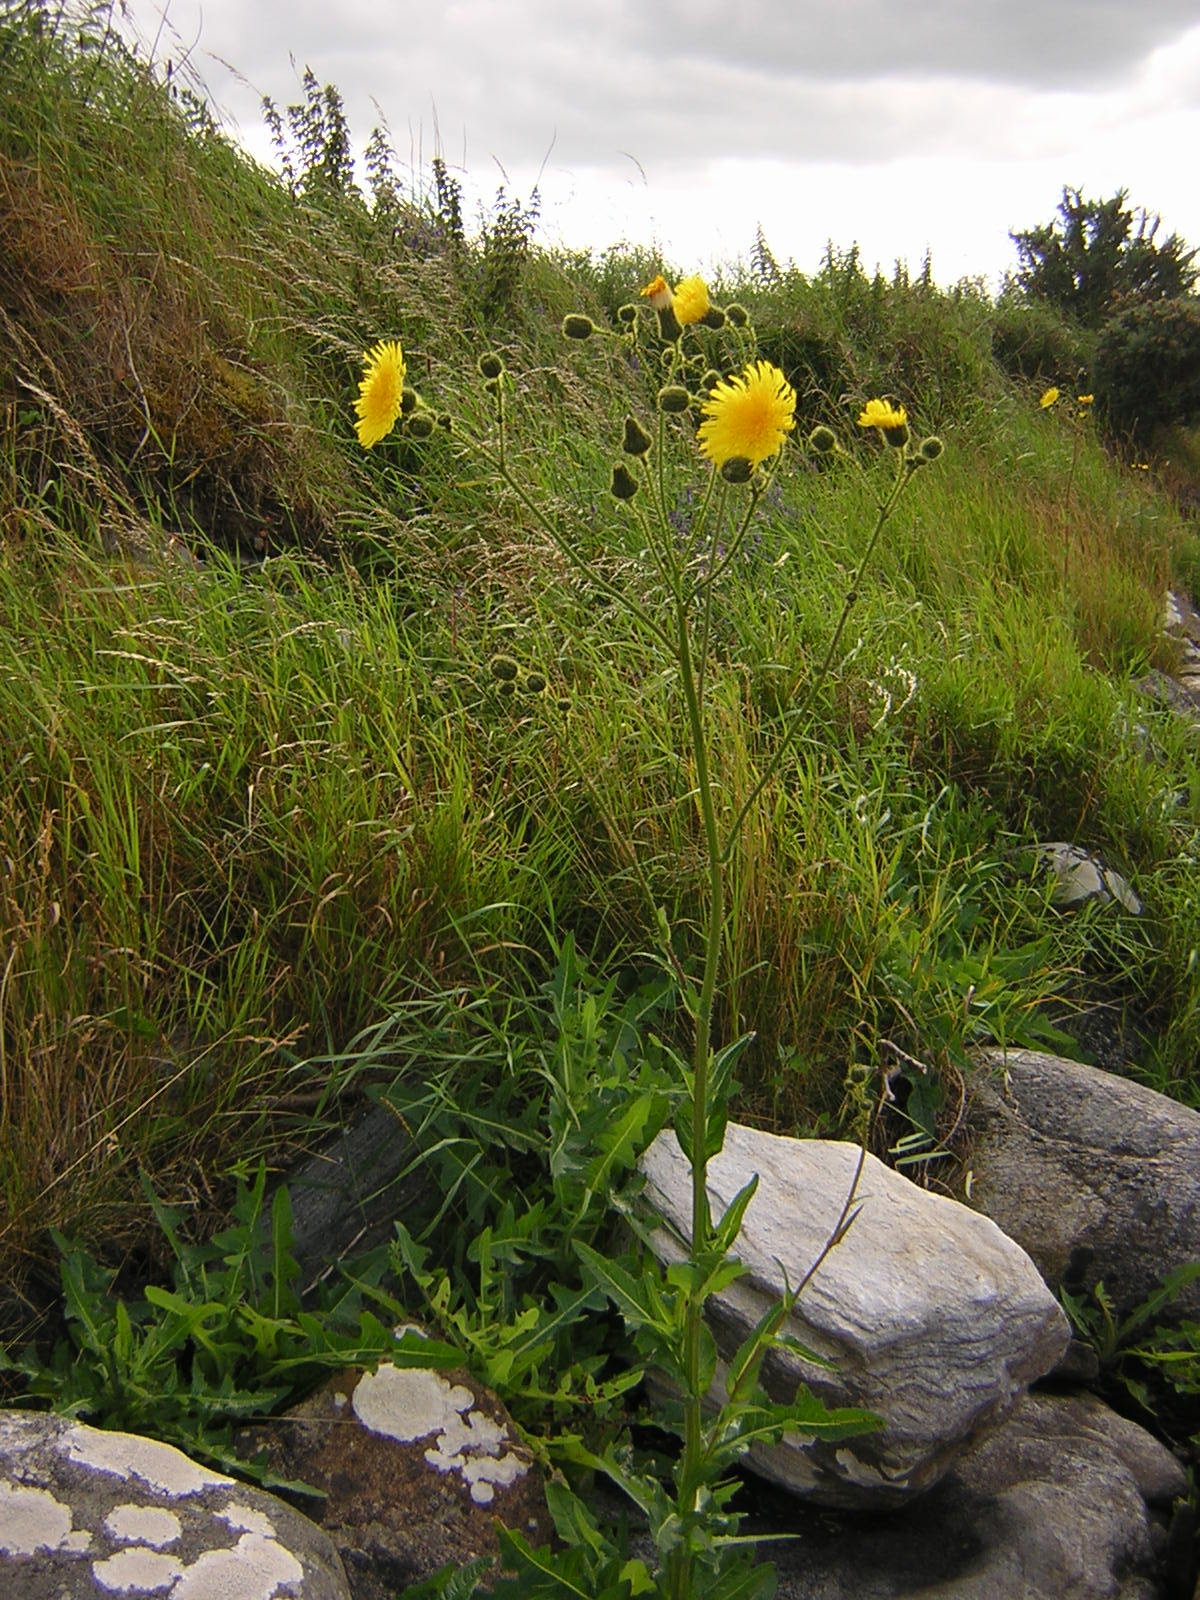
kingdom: Plantae
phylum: Tracheophyta
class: Magnoliopsida
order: Asterales
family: Asteraceae
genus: Sonchus
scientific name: Sonchus arvensis
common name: Perennial sow-thistle
